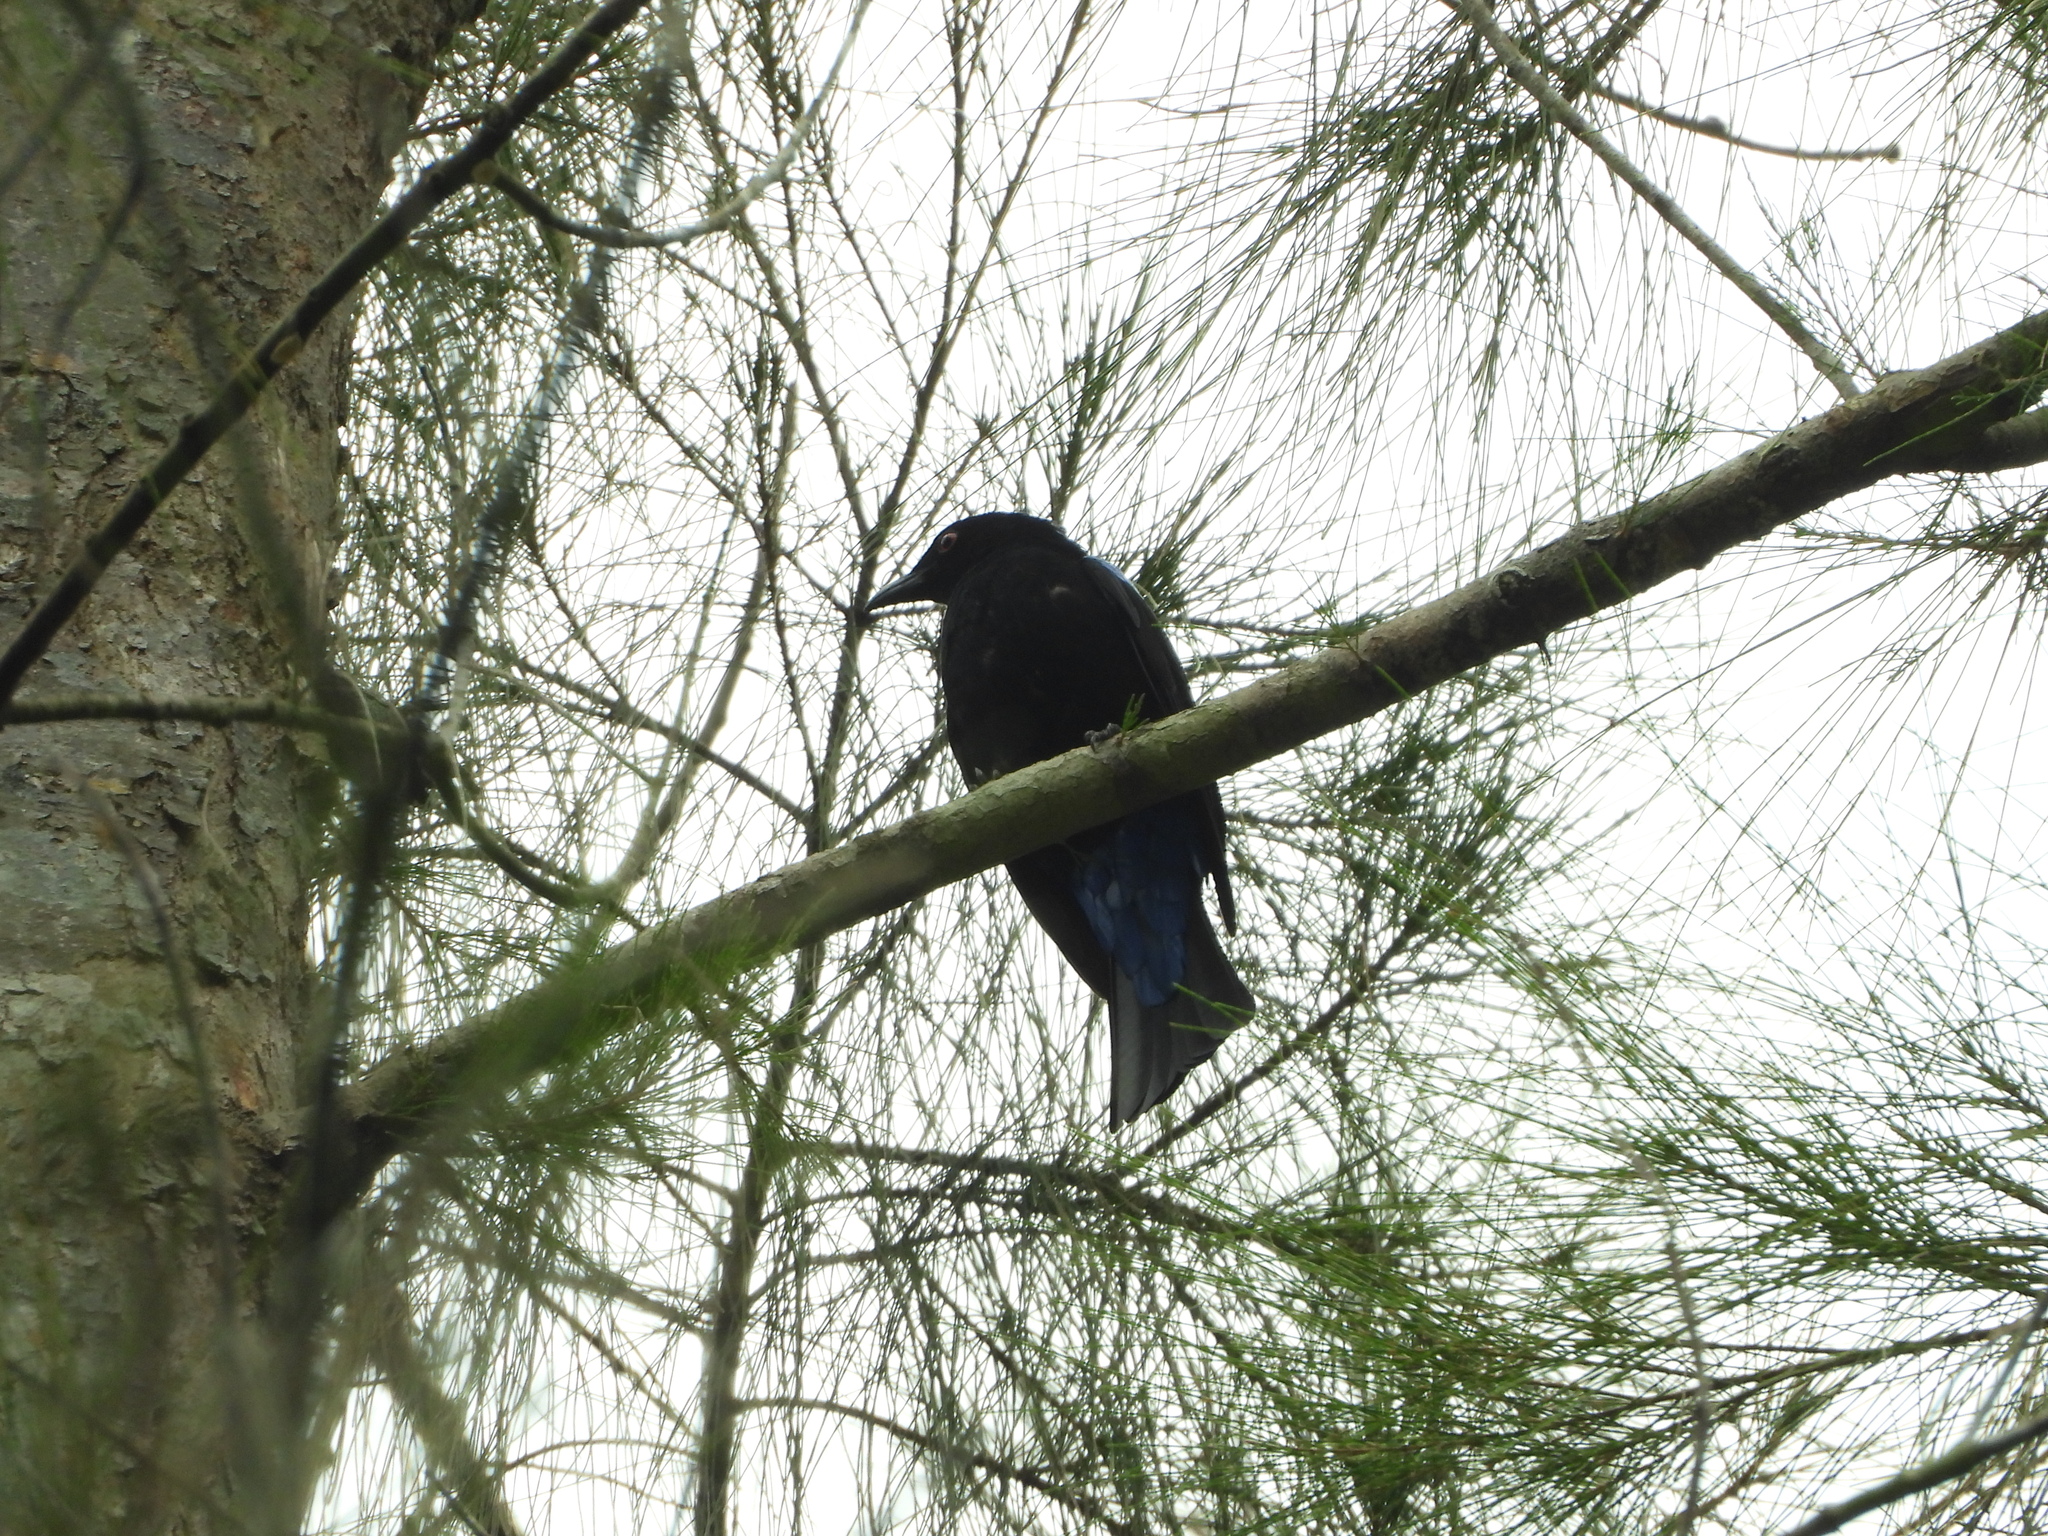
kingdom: Animalia
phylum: Chordata
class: Aves
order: Passeriformes
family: Irenidae
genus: Irena
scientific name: Irena puella
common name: Asian fairy-bluebird
